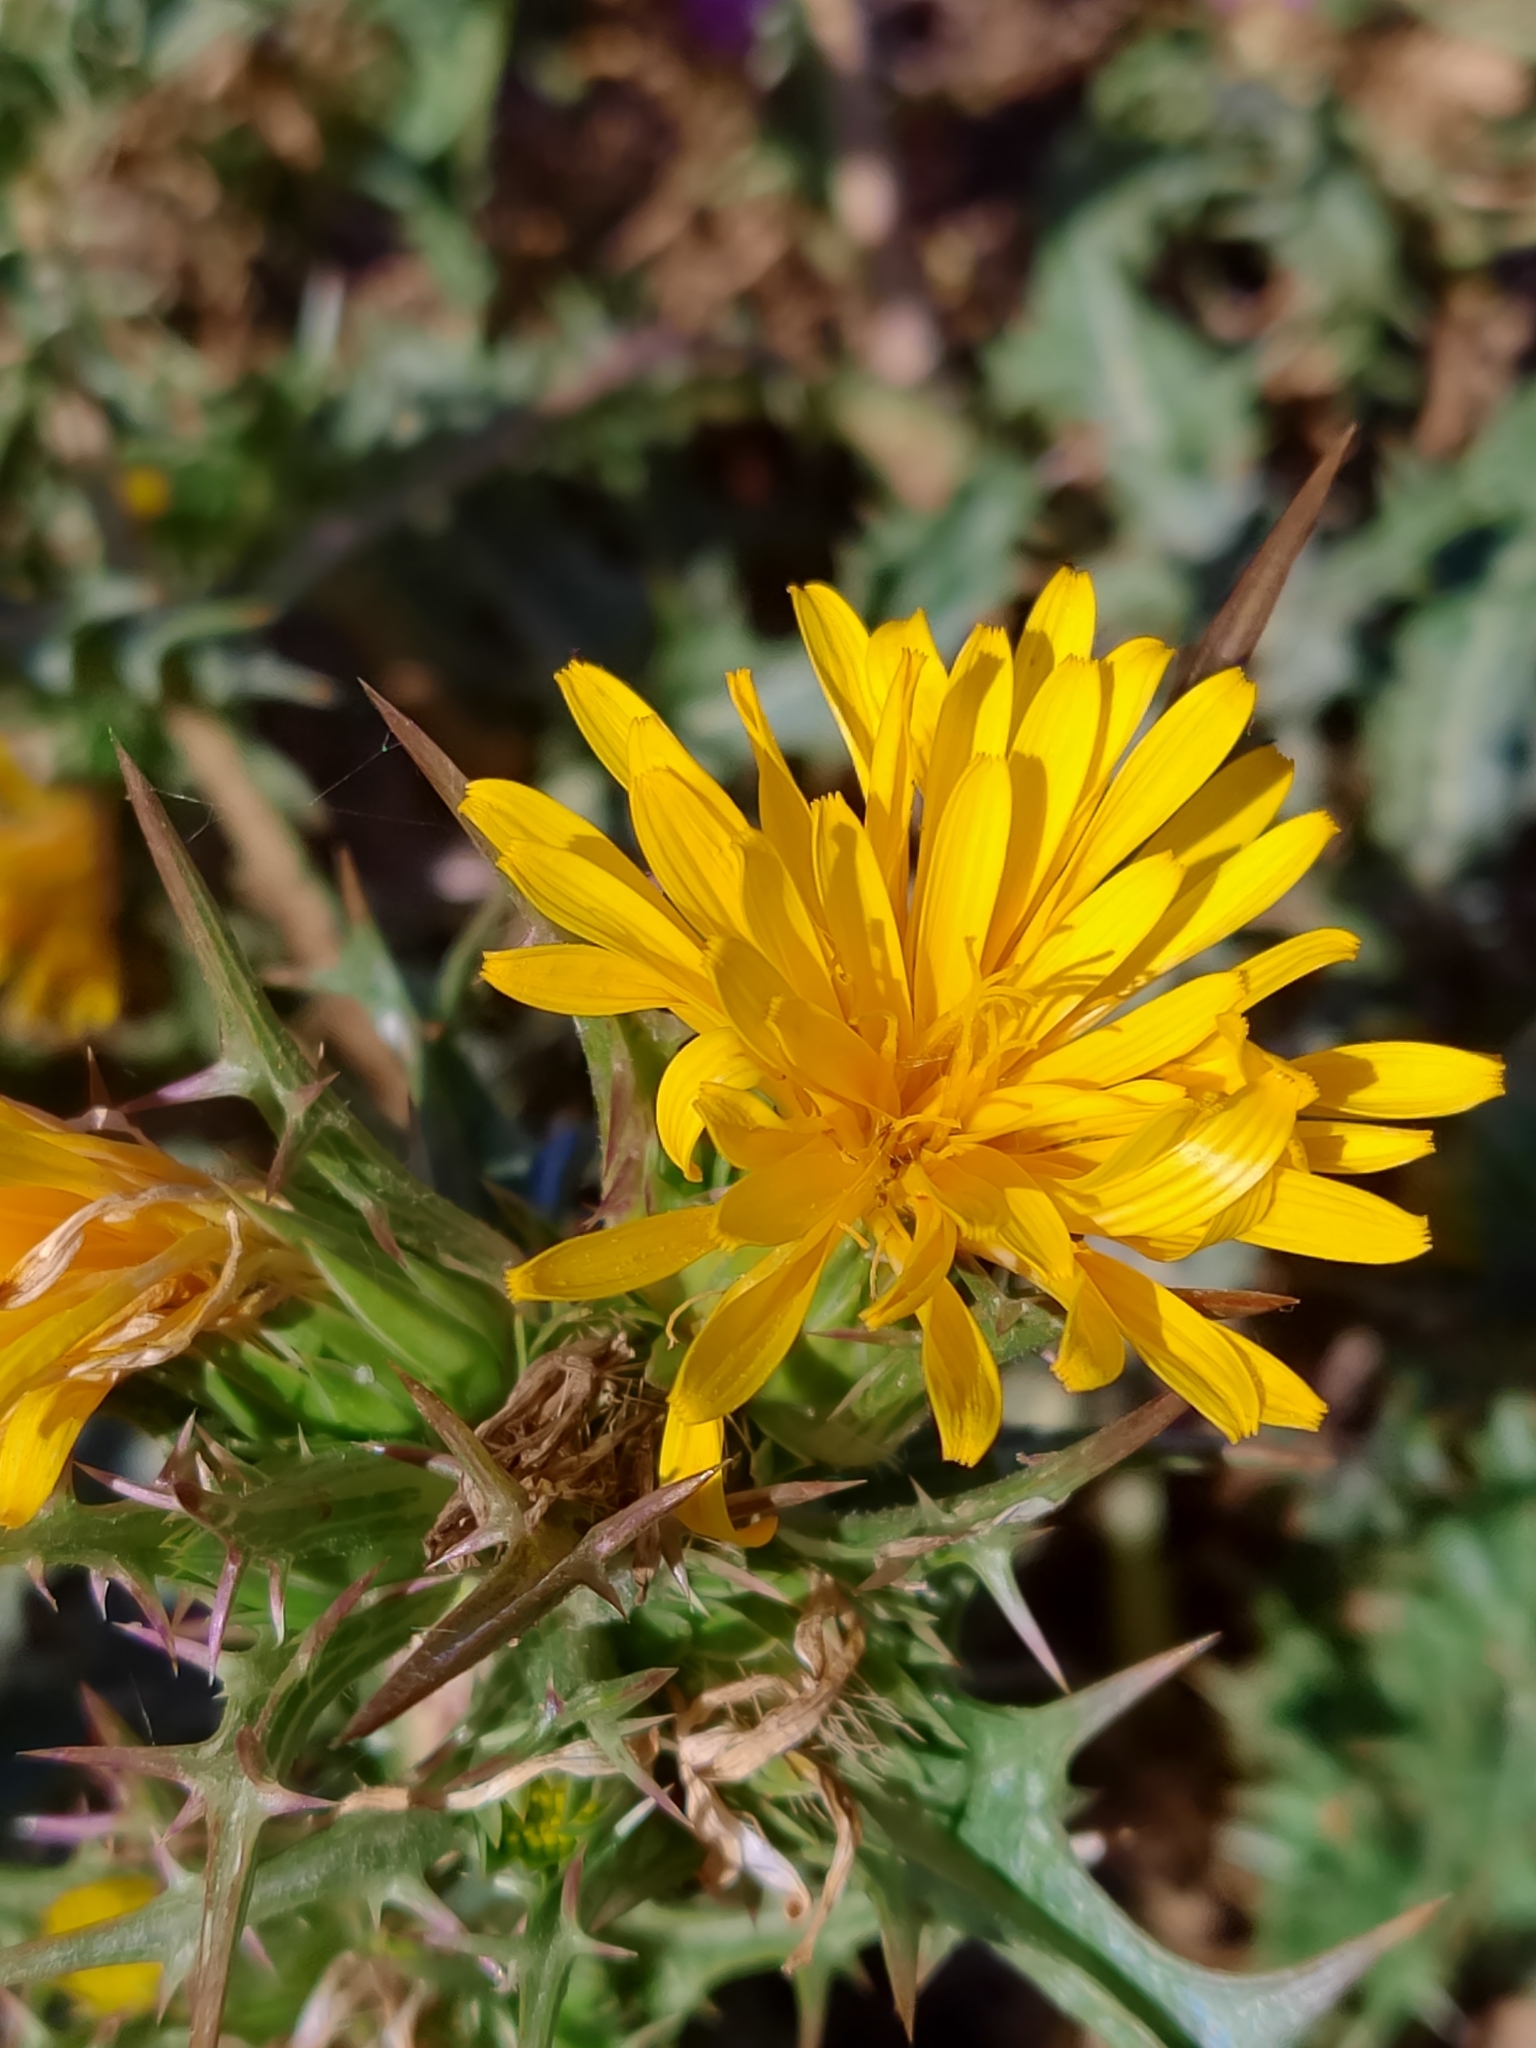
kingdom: Plantae
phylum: Tracheophyta
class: Magnoliopsida
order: Asterales
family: Asteraceae
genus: Scolymus
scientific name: Scolymus hispanicus
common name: Golden thistle
